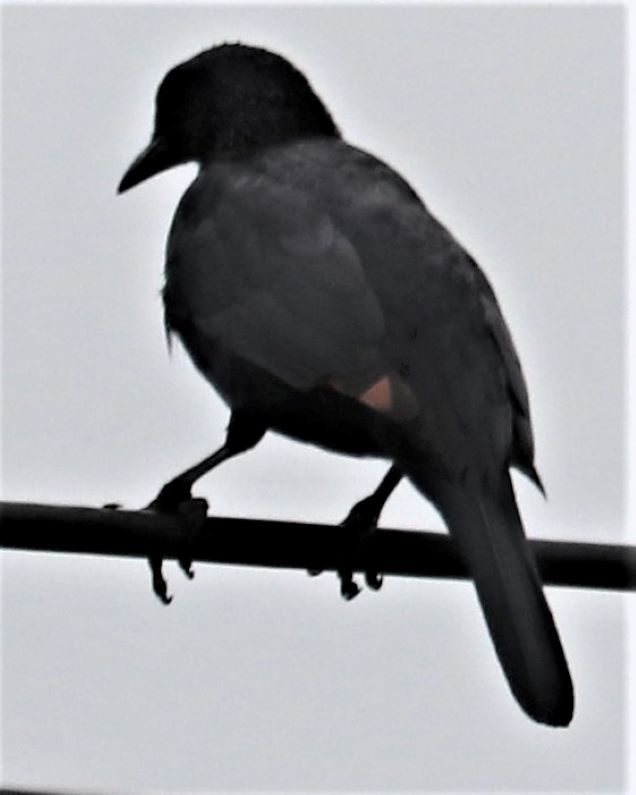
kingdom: Animalia
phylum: Chordata
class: Aves
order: Passeriformes
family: Sturnidae
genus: Onychognathus
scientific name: Onychognathus morio
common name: Red-winged starling
